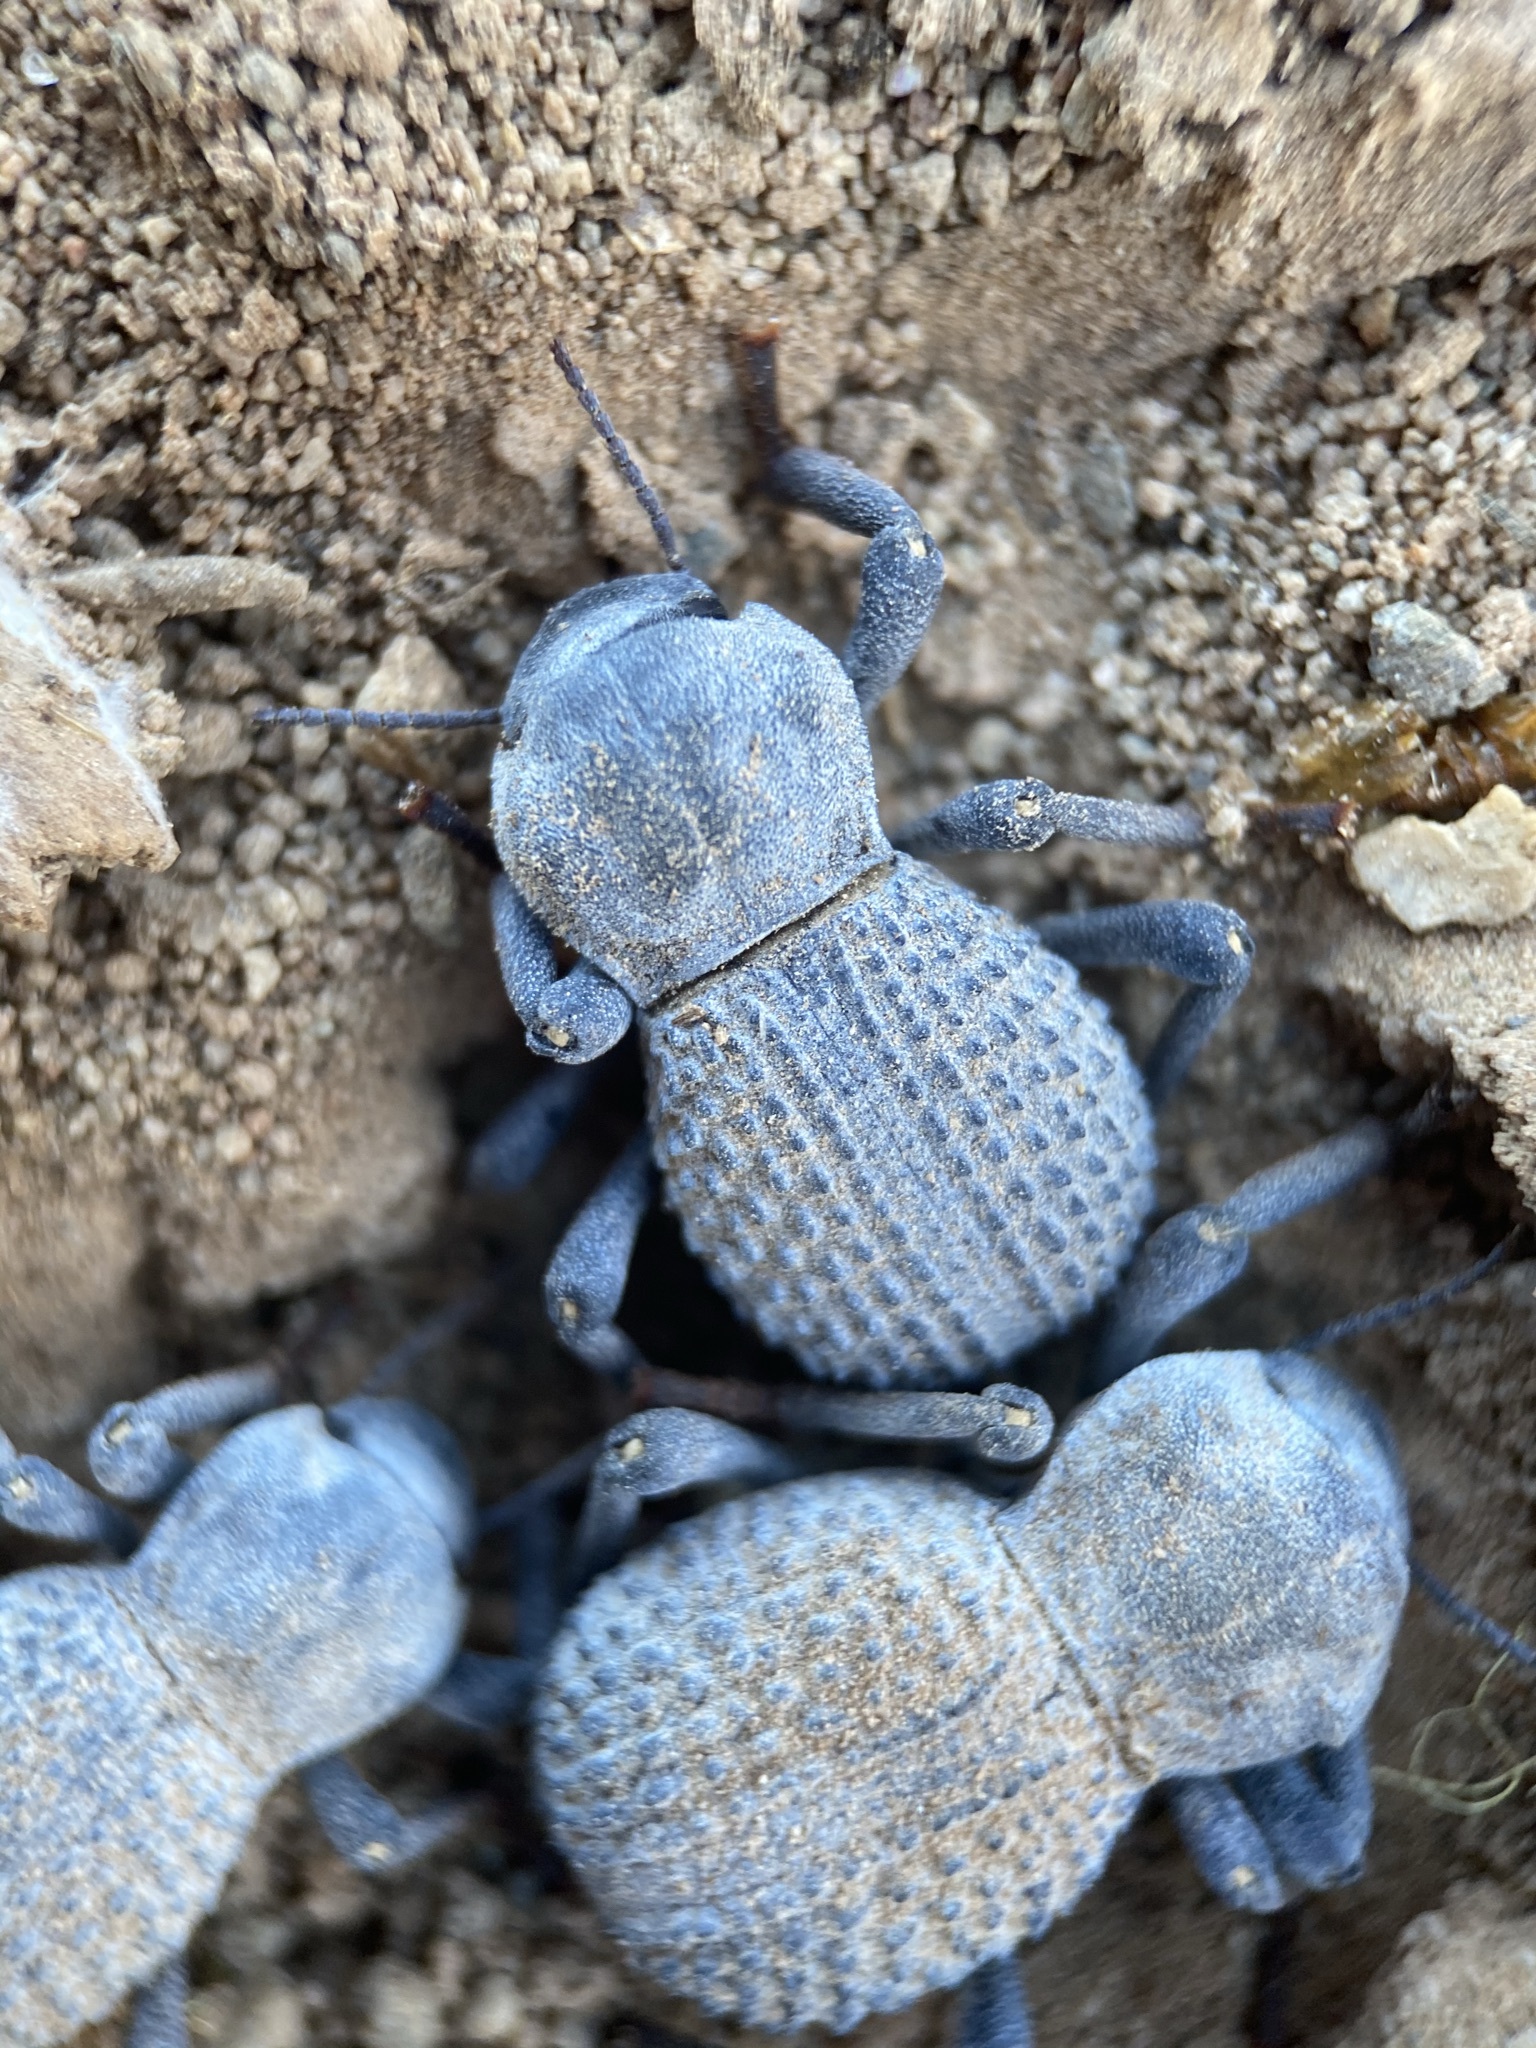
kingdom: Animalia
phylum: Arthropoda
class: Insecta
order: Coleoptera
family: Tenebrionidae
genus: Asbolus
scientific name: Asbolus verrucosus
